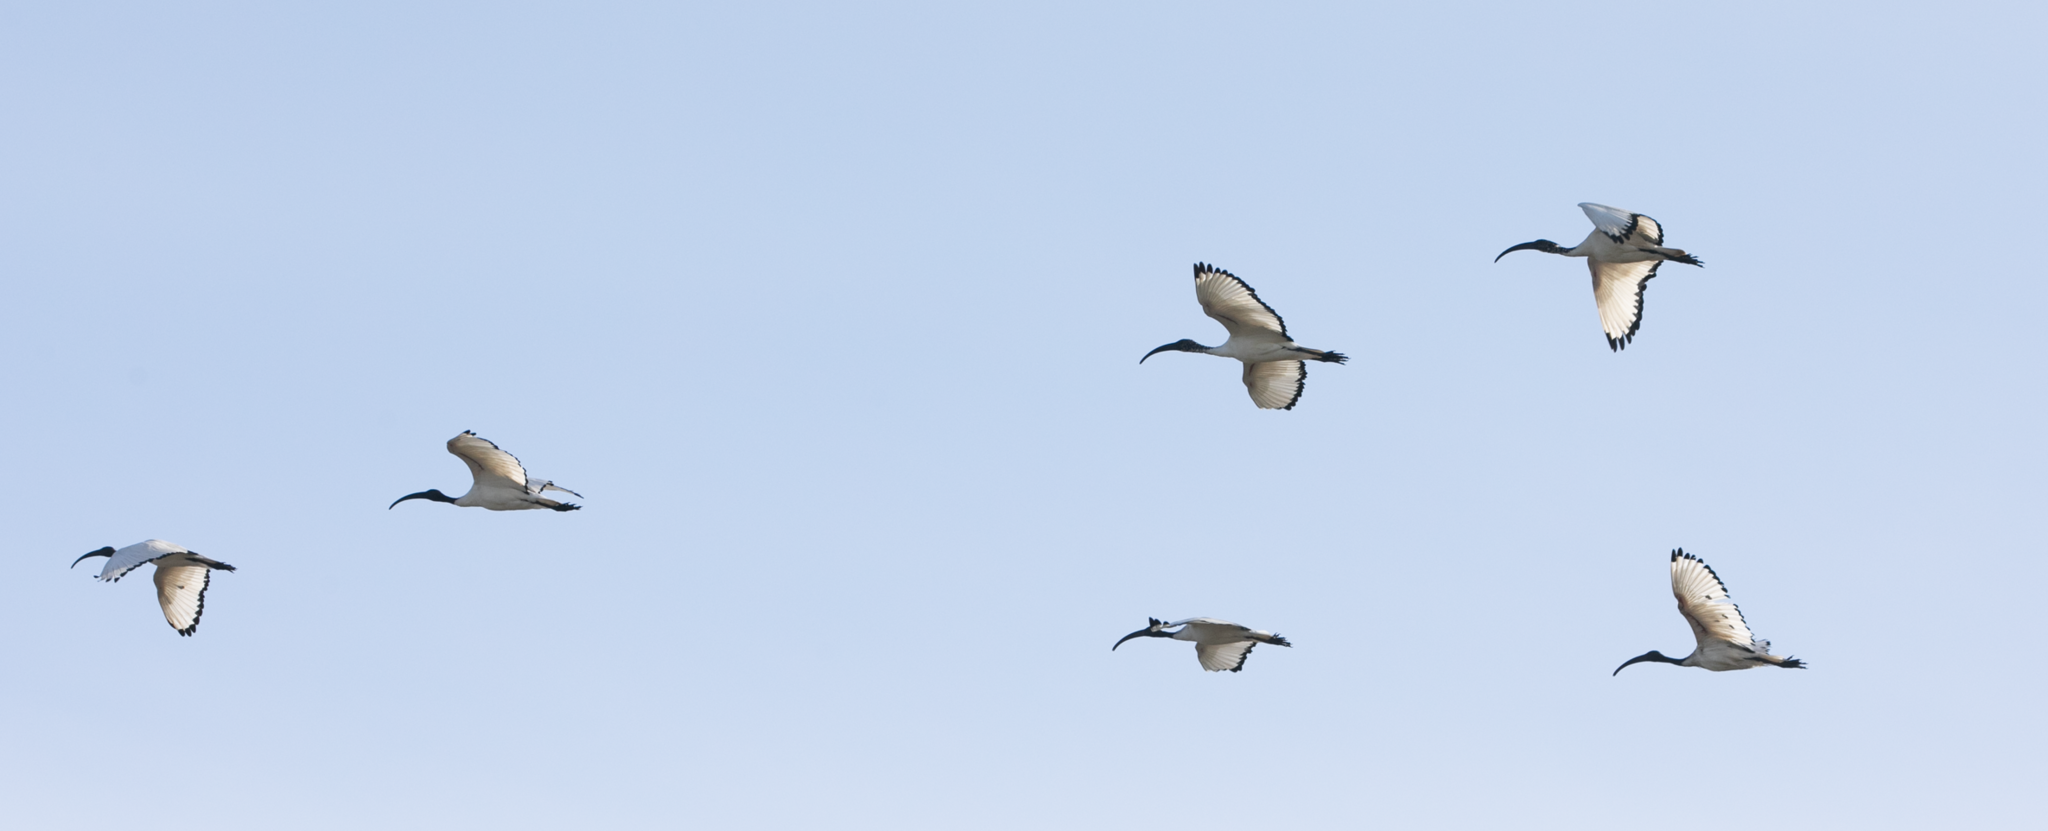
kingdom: Animalia
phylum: Chordata
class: Aves
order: Pelecaniformes
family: Threskiornithidae
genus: Threskiornis
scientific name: Threskiornis aethiopicus
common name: Sacred ibis
